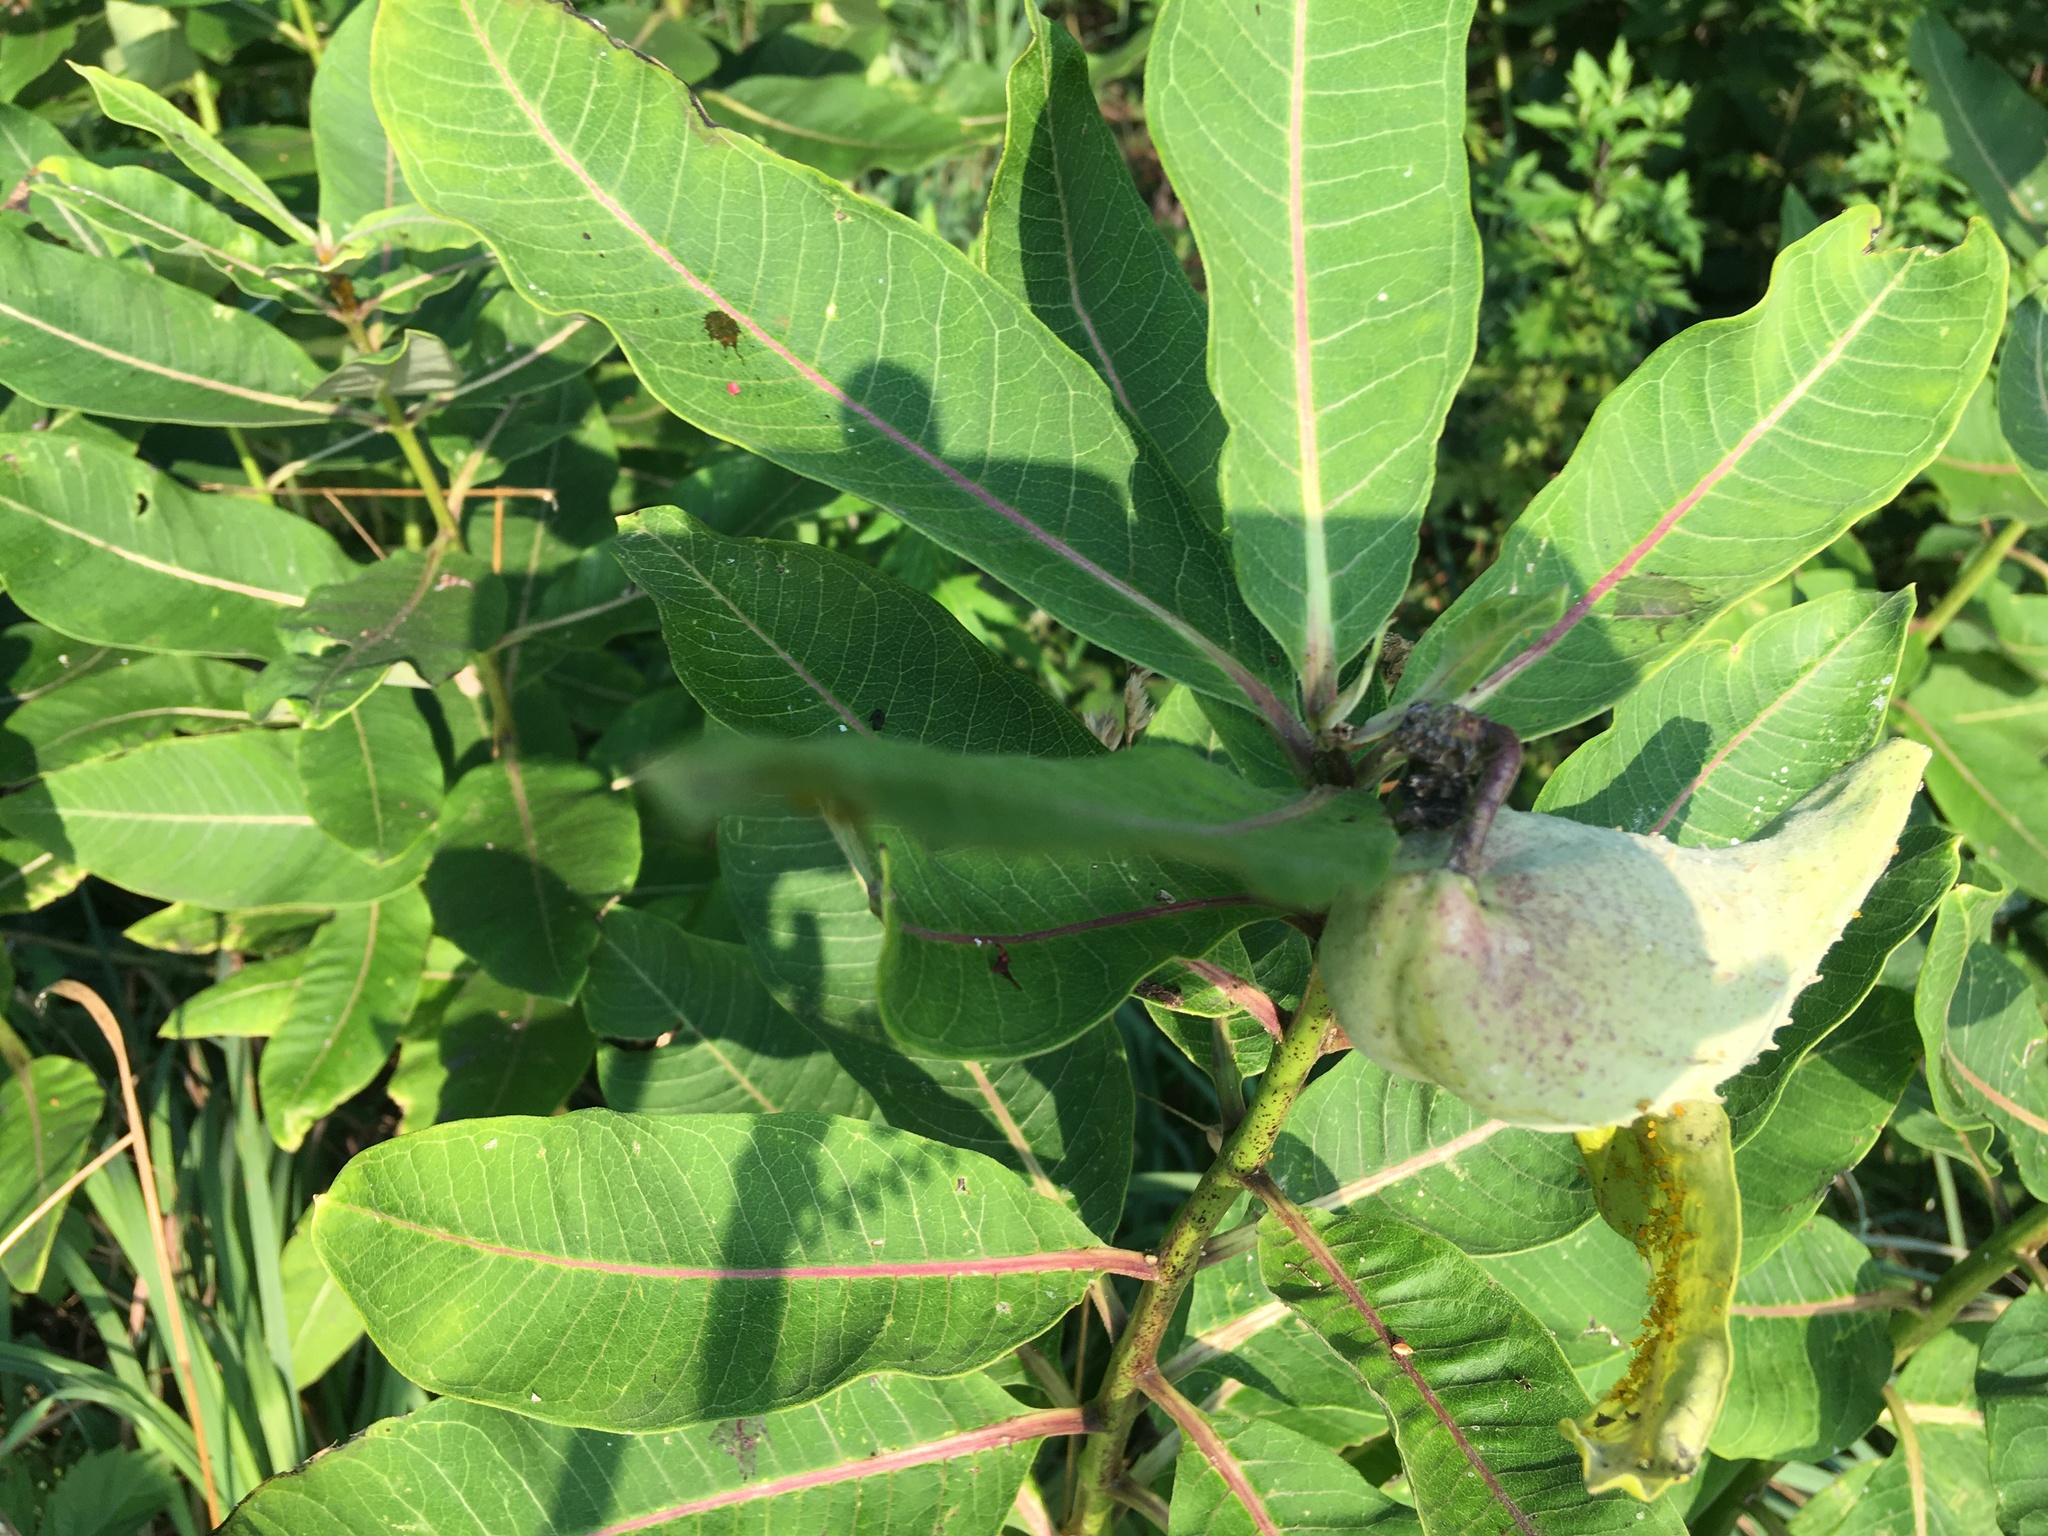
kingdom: Plantae
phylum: Tracheophyta
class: Magnoliopsida
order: Gentianales
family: Apocynaceae
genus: Asclepias
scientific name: Asclepias syriaca
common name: Common milkweed
